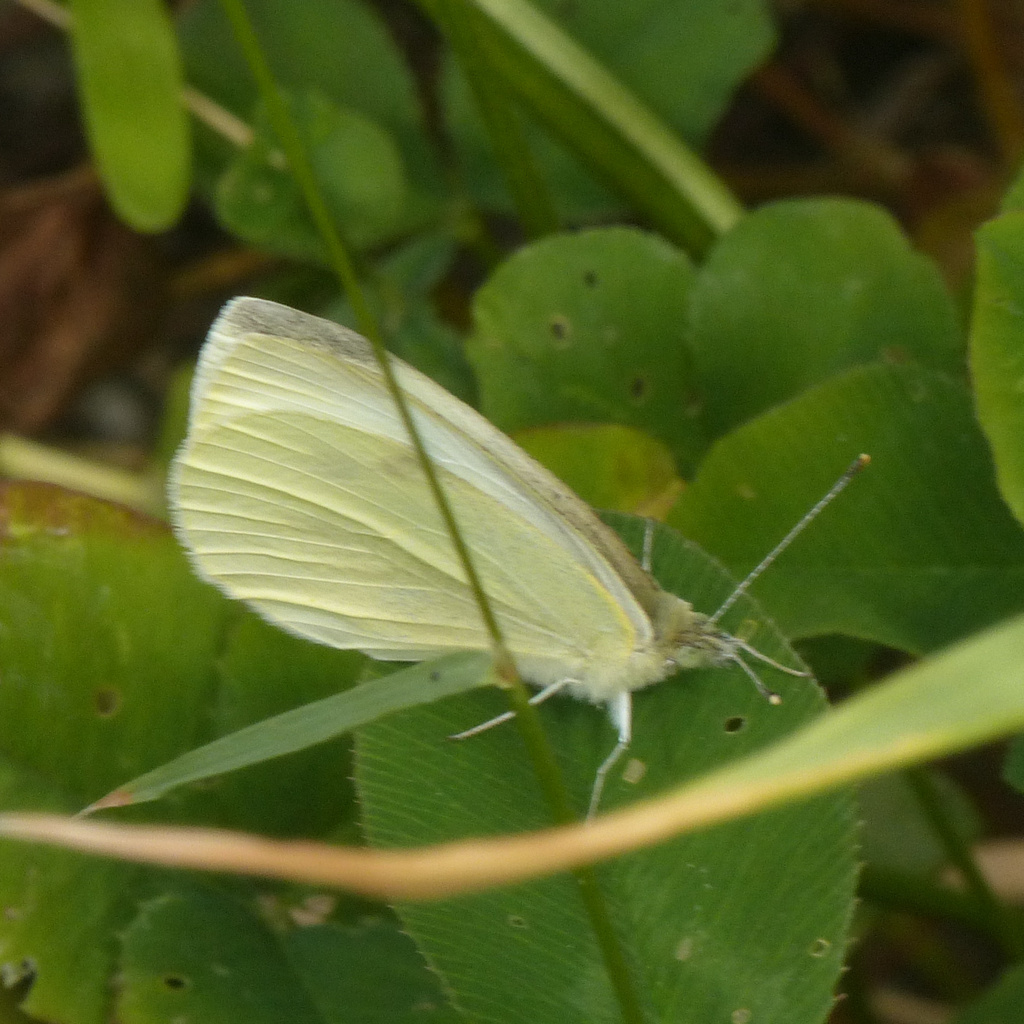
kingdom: Animalia
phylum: Arthropoda
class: Insecta
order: Lepidoptera
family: Pieridae
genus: Pieris
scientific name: Pieris rapae
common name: Small white
